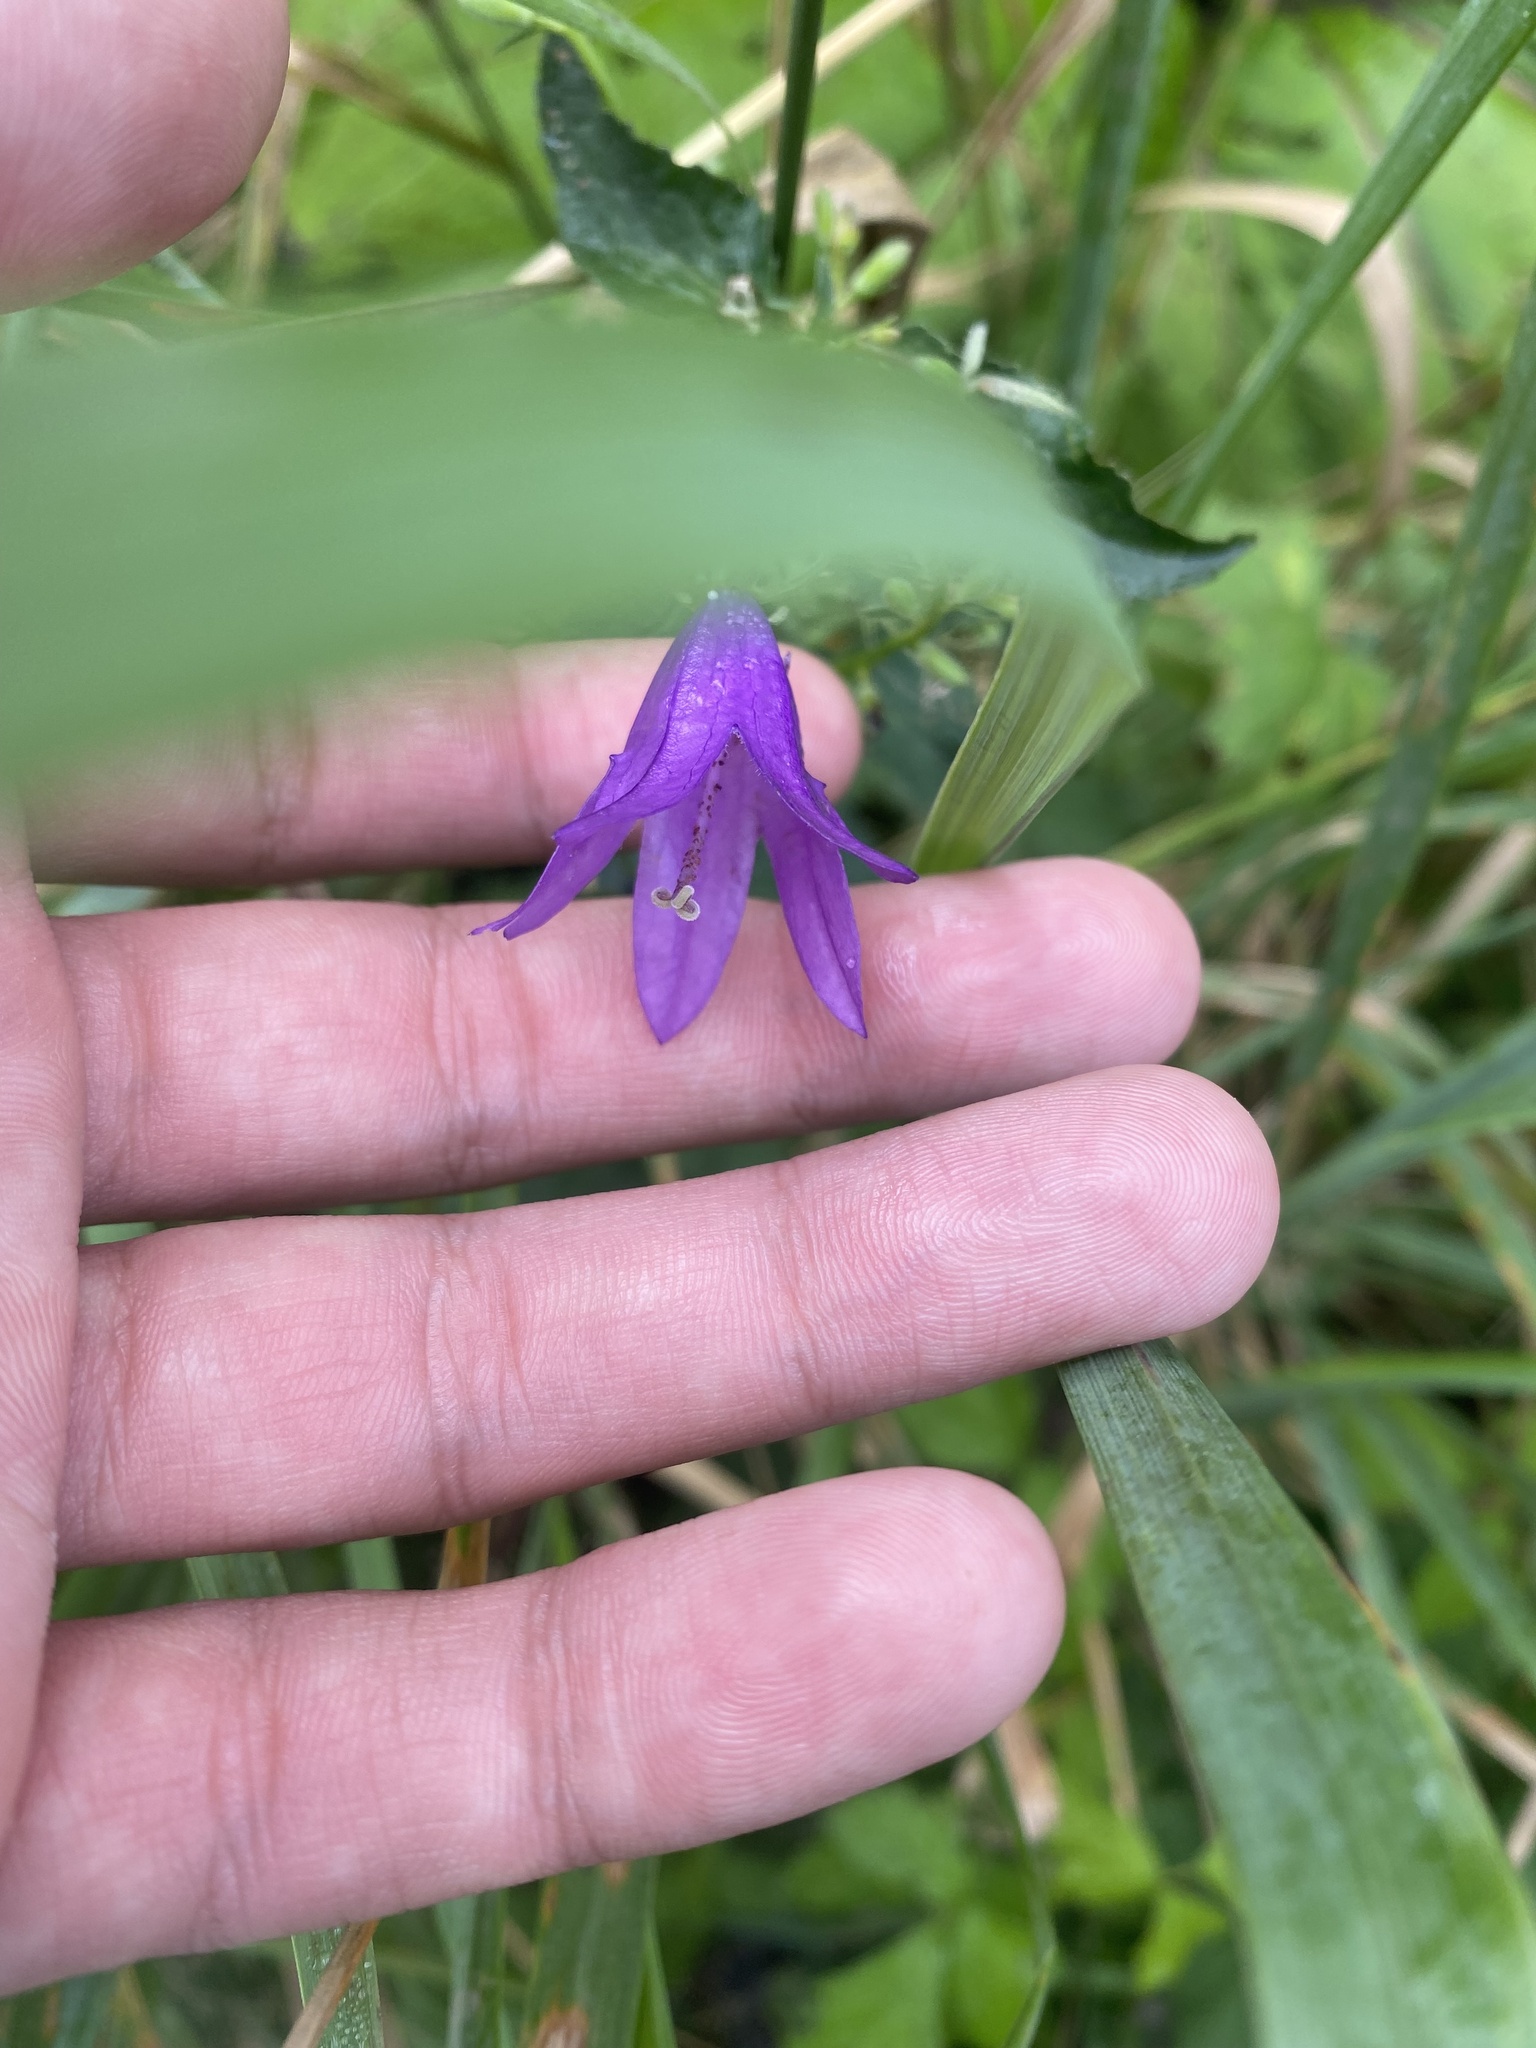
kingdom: Plantae
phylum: Tracheophyta
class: Magnoliopsida
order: Asterales
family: Campanulaceae
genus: Campanula
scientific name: Campanula rapunculoides
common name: Creeping bellflower
